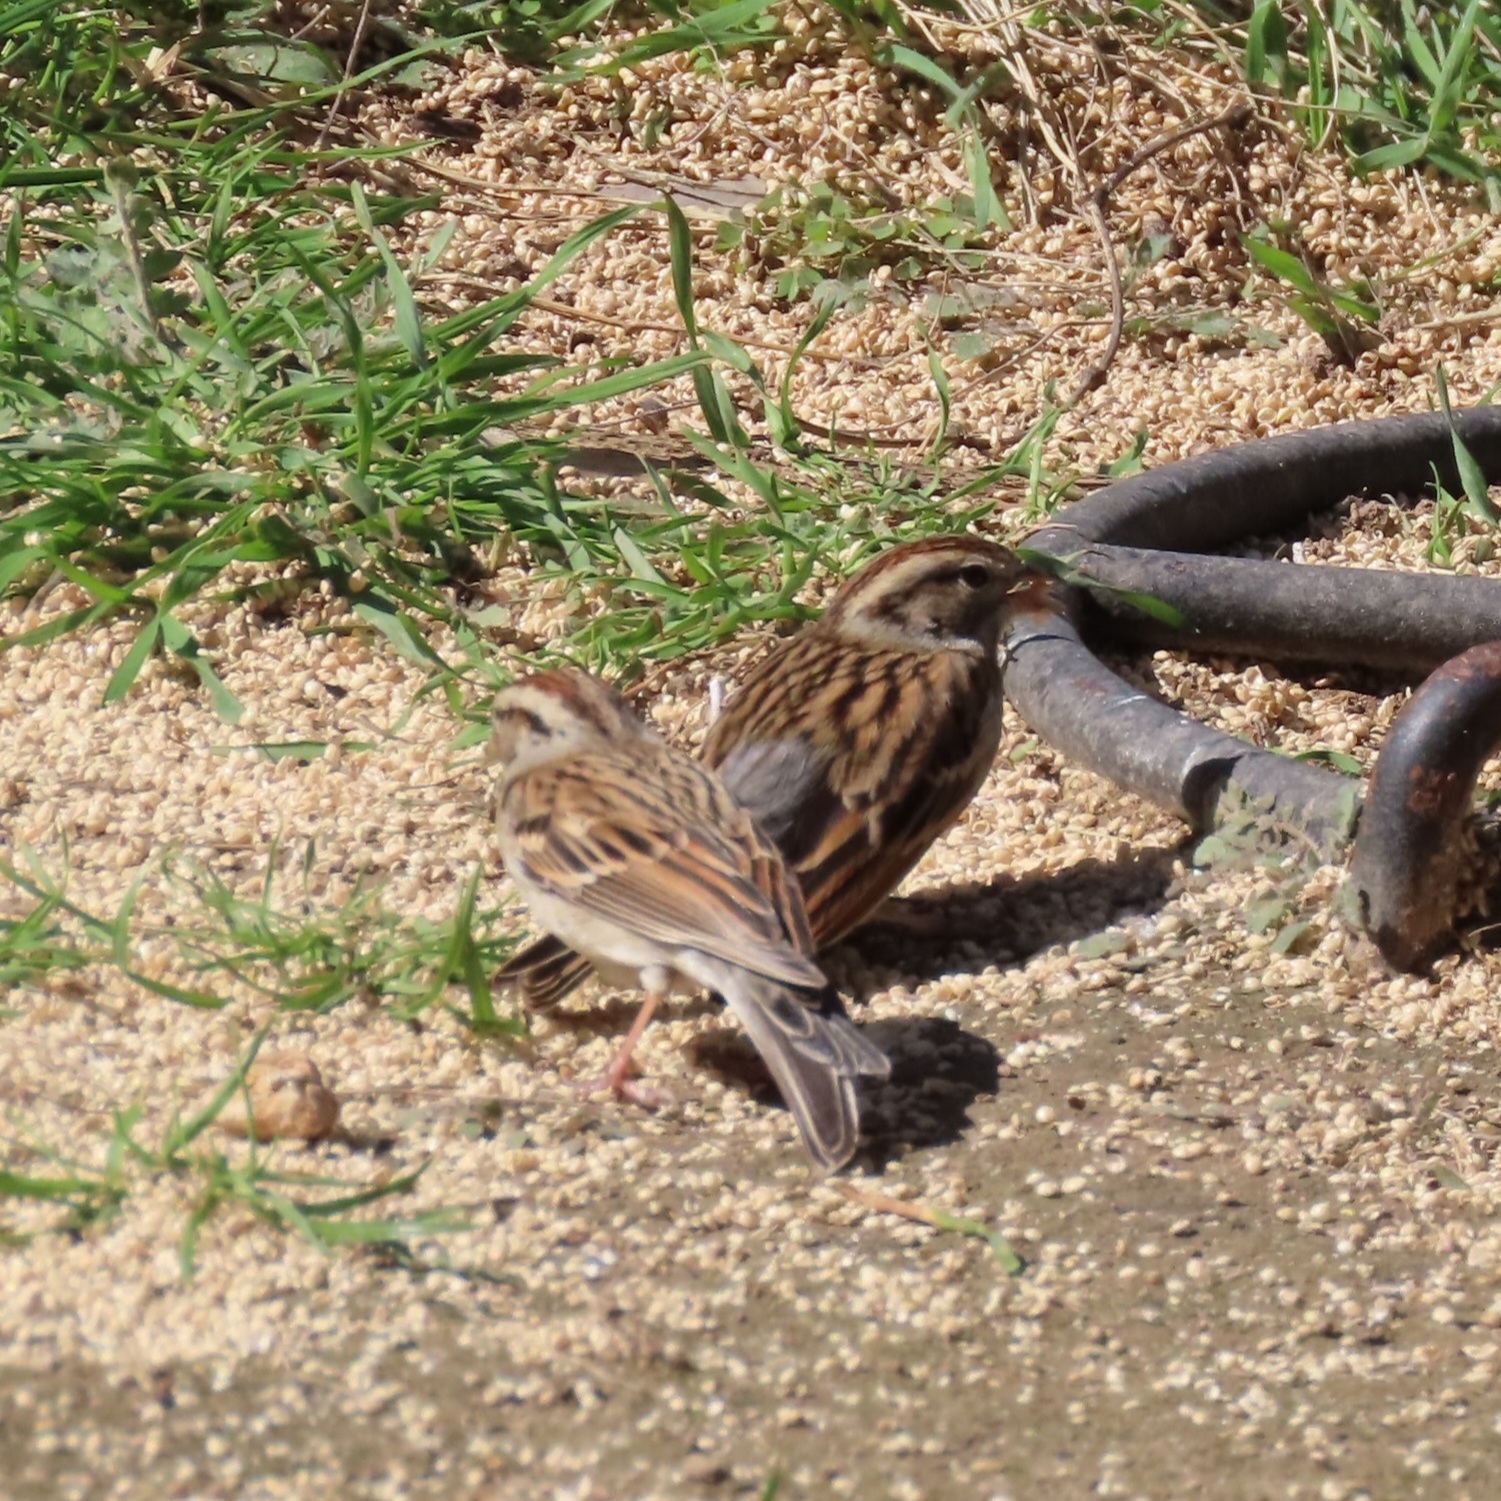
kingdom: Animalia
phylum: Chordata
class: Aves
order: Passeriformes
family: Passerellidae
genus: Spizella
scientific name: Spizella passerina
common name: Chipping sparrow
